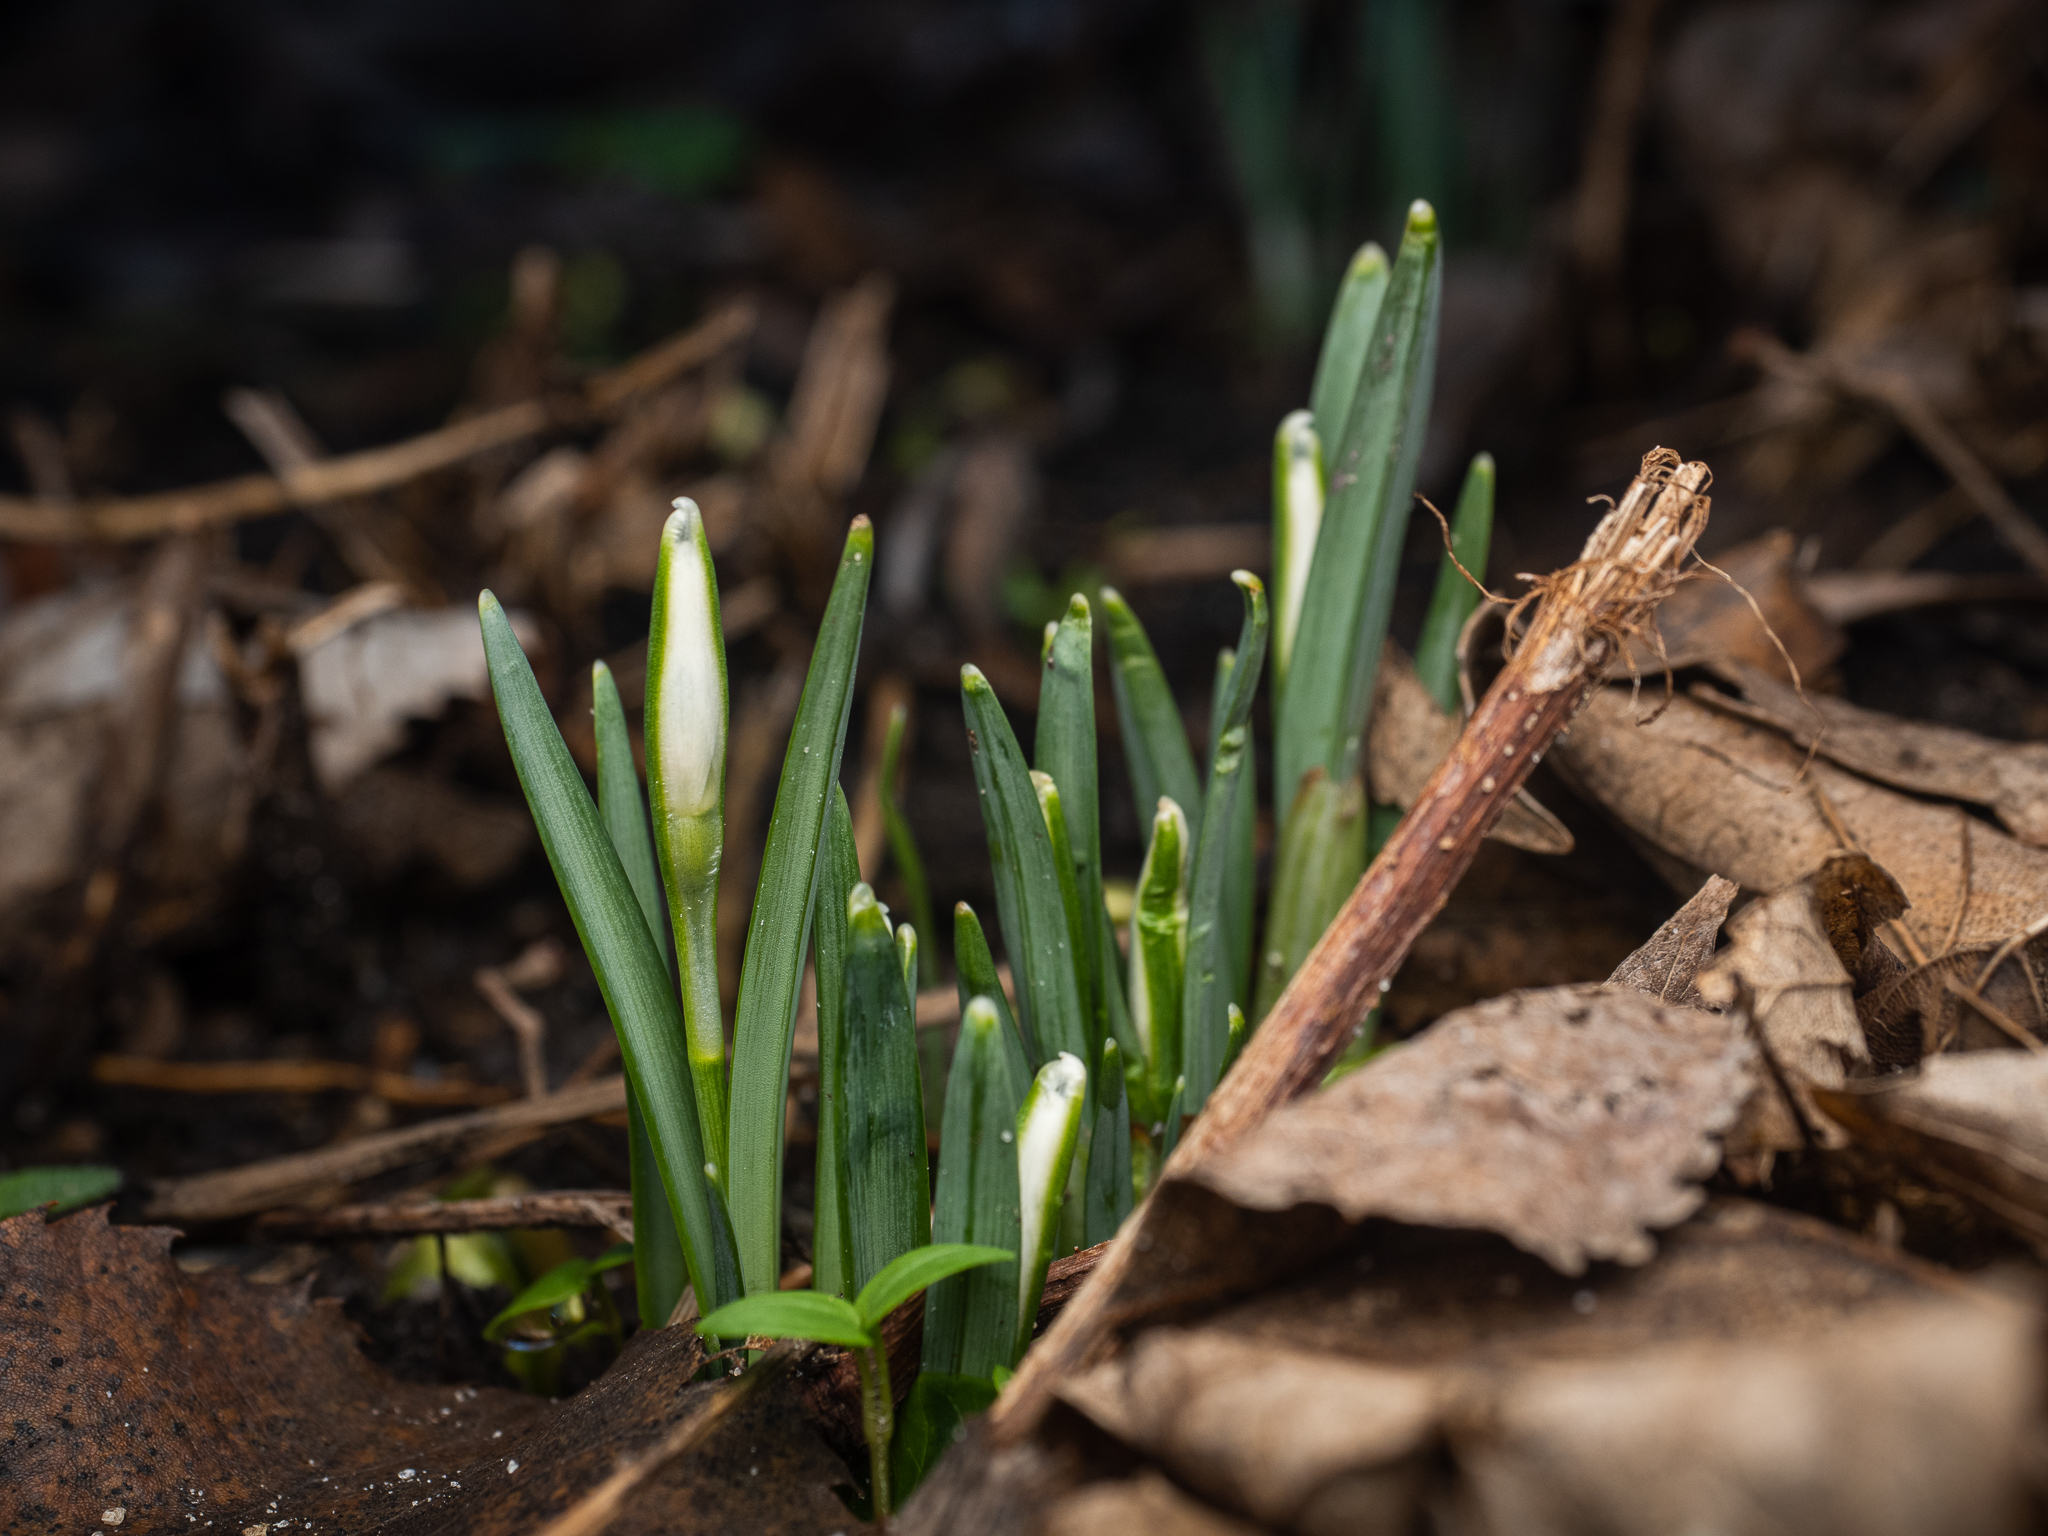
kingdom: Plantae
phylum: Tracheophyta
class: Liliopsida
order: Asparagales
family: Amaryllidaceae
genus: Galanthus
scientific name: Galanthus nivalis
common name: Snowdrop
